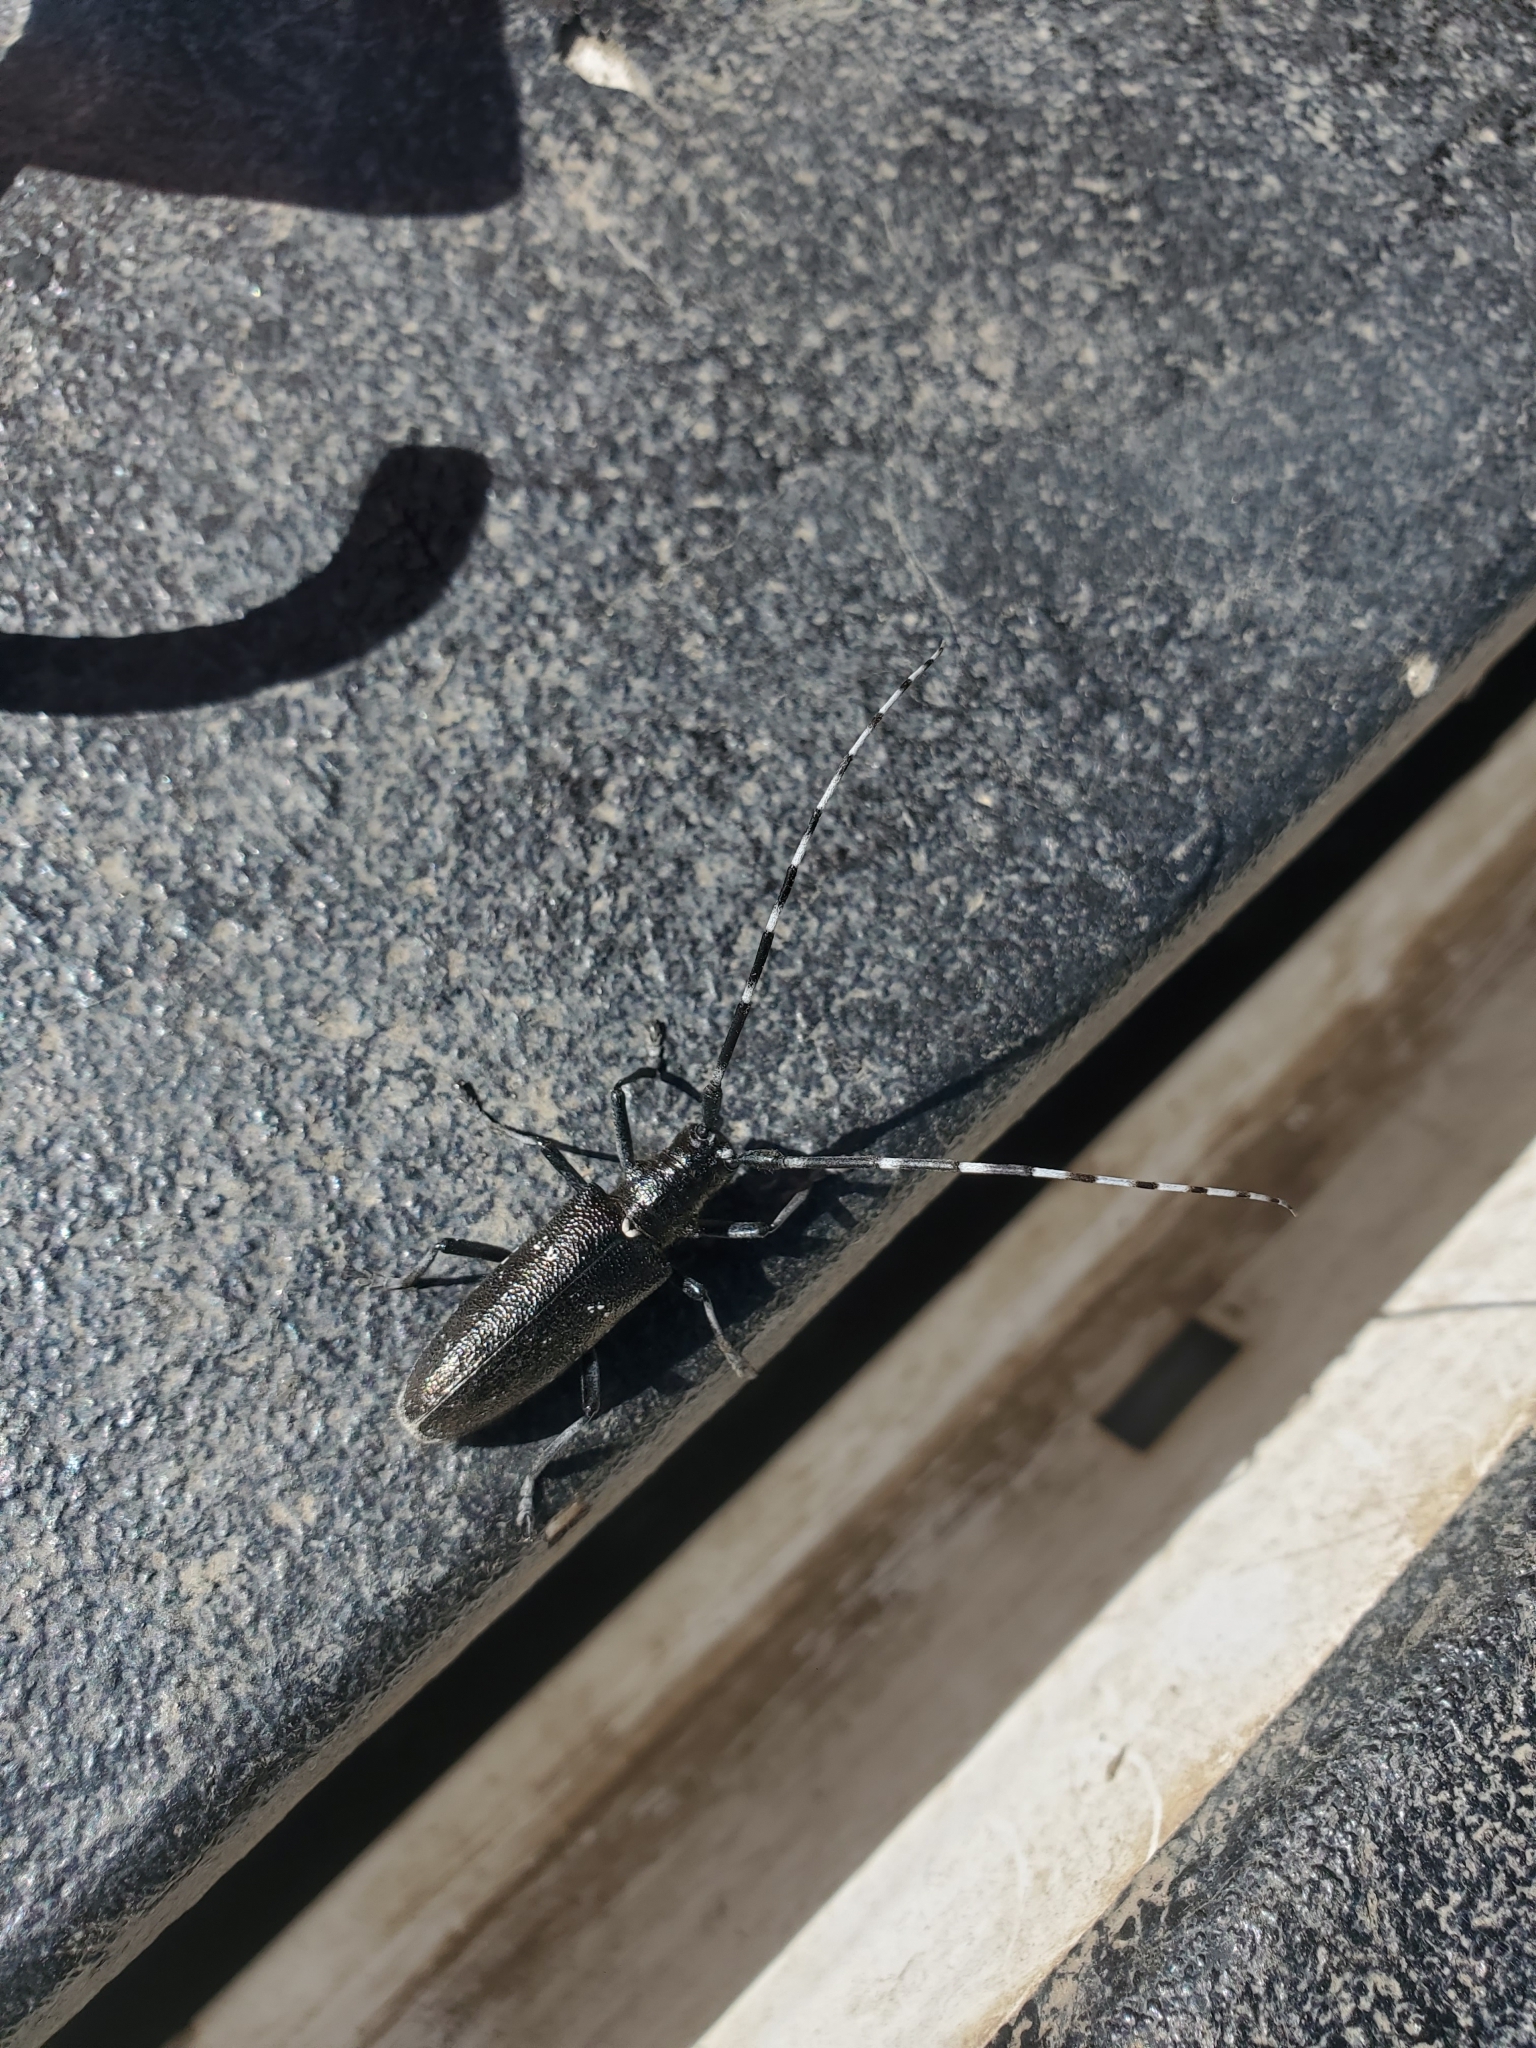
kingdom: Animalia
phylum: Arthropoda
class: Insecta
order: Coleoptera
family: Cerambycidae
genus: Monochamus
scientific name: Monochamus scutellatus
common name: White-spotted sawyer beetle
